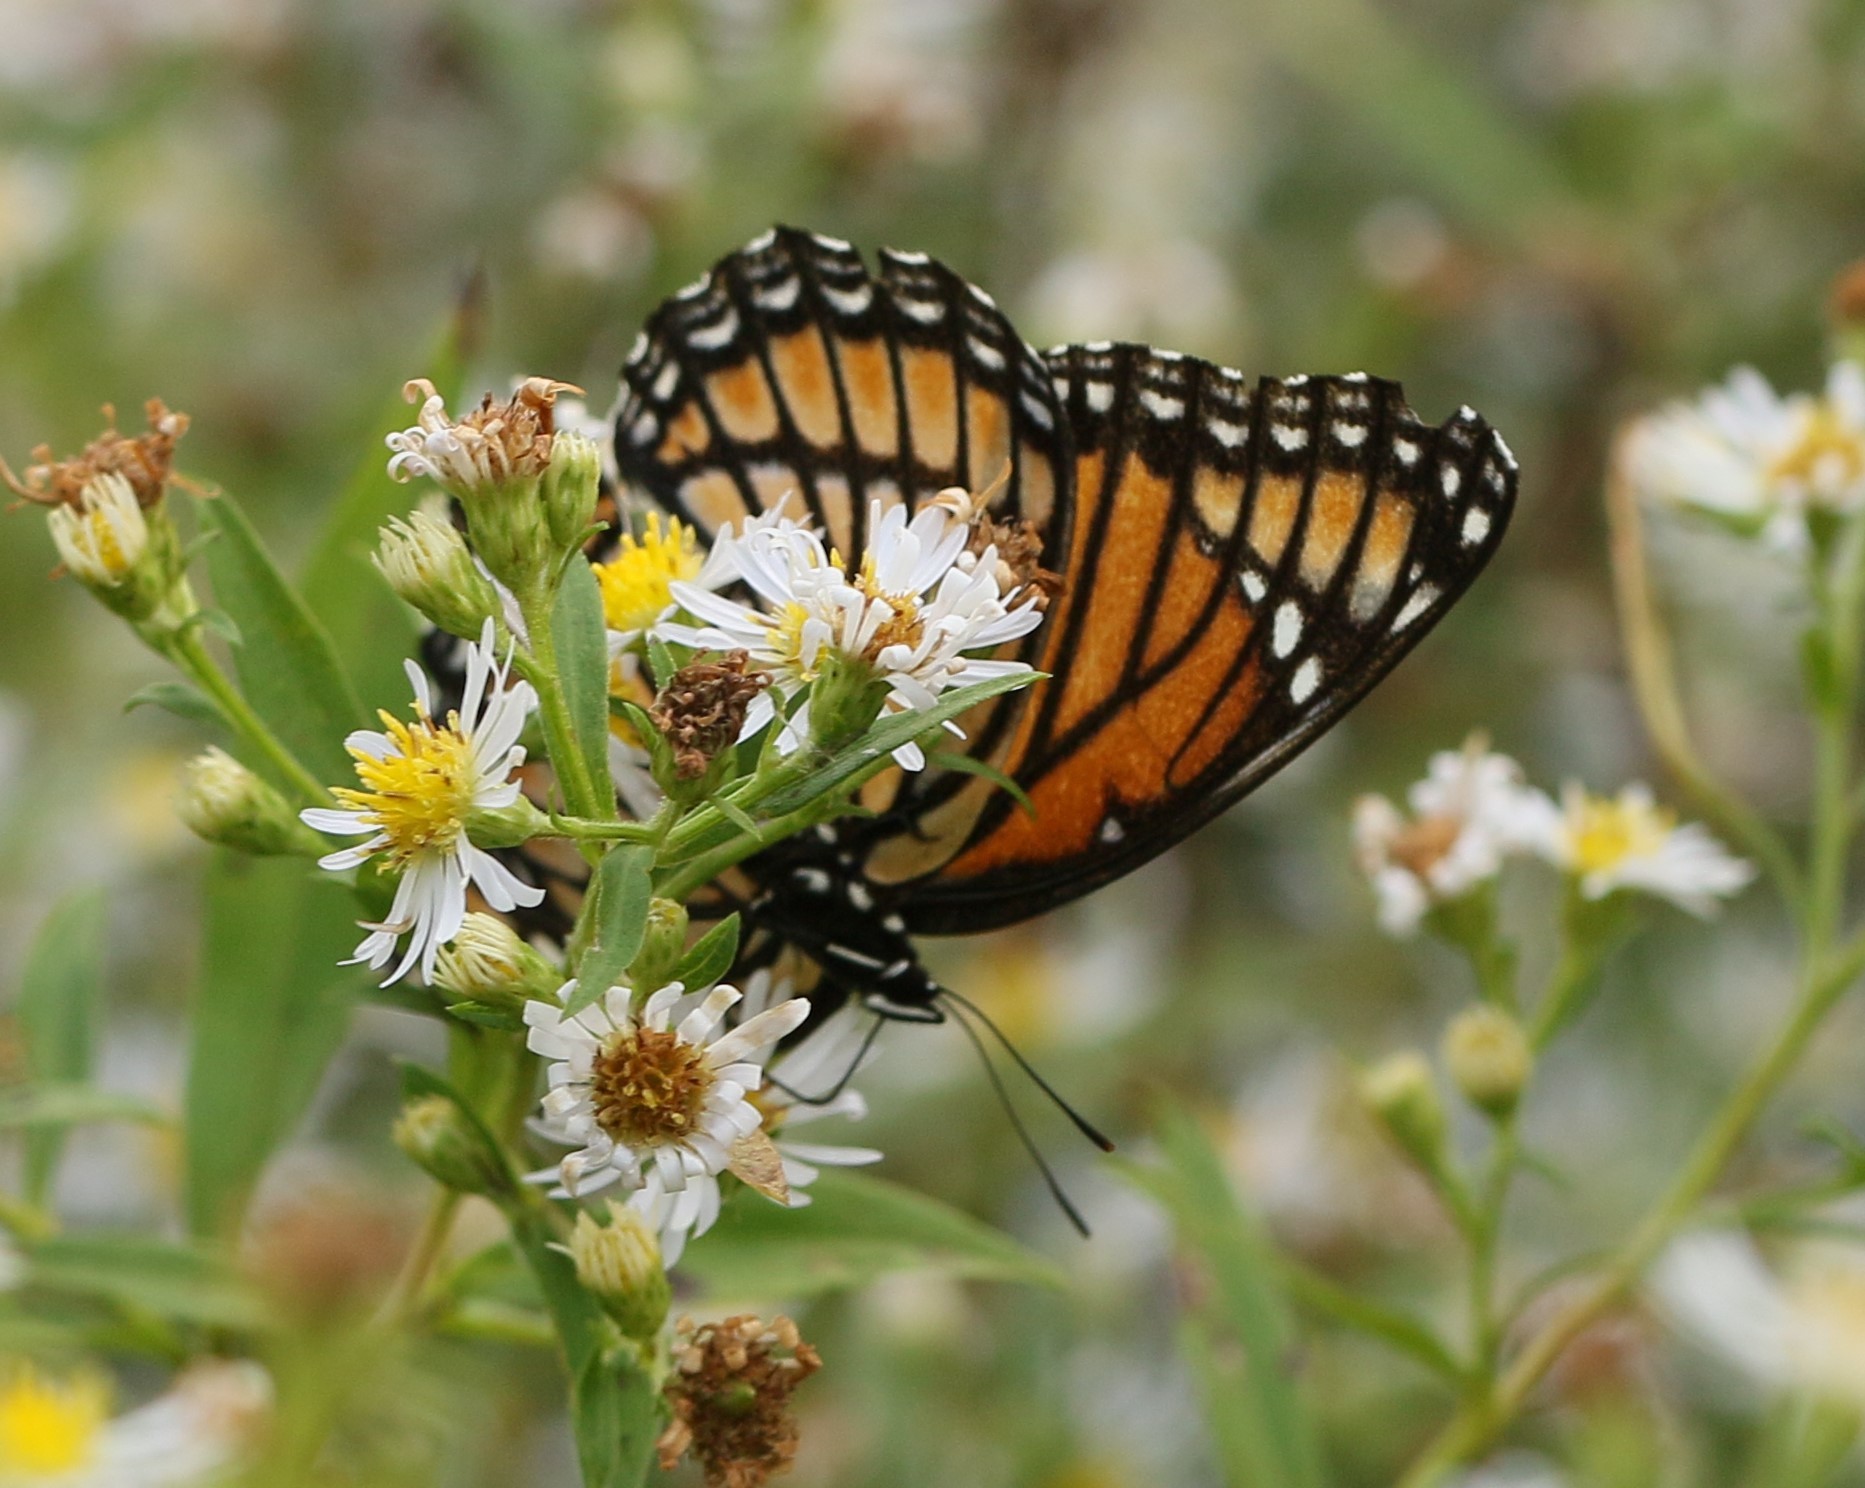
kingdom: Animalia
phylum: Arthropoda
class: Insecta
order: Lepidoptera
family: Nymphalidae
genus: Limenitis
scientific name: Limenitis archippus
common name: Viceroy
